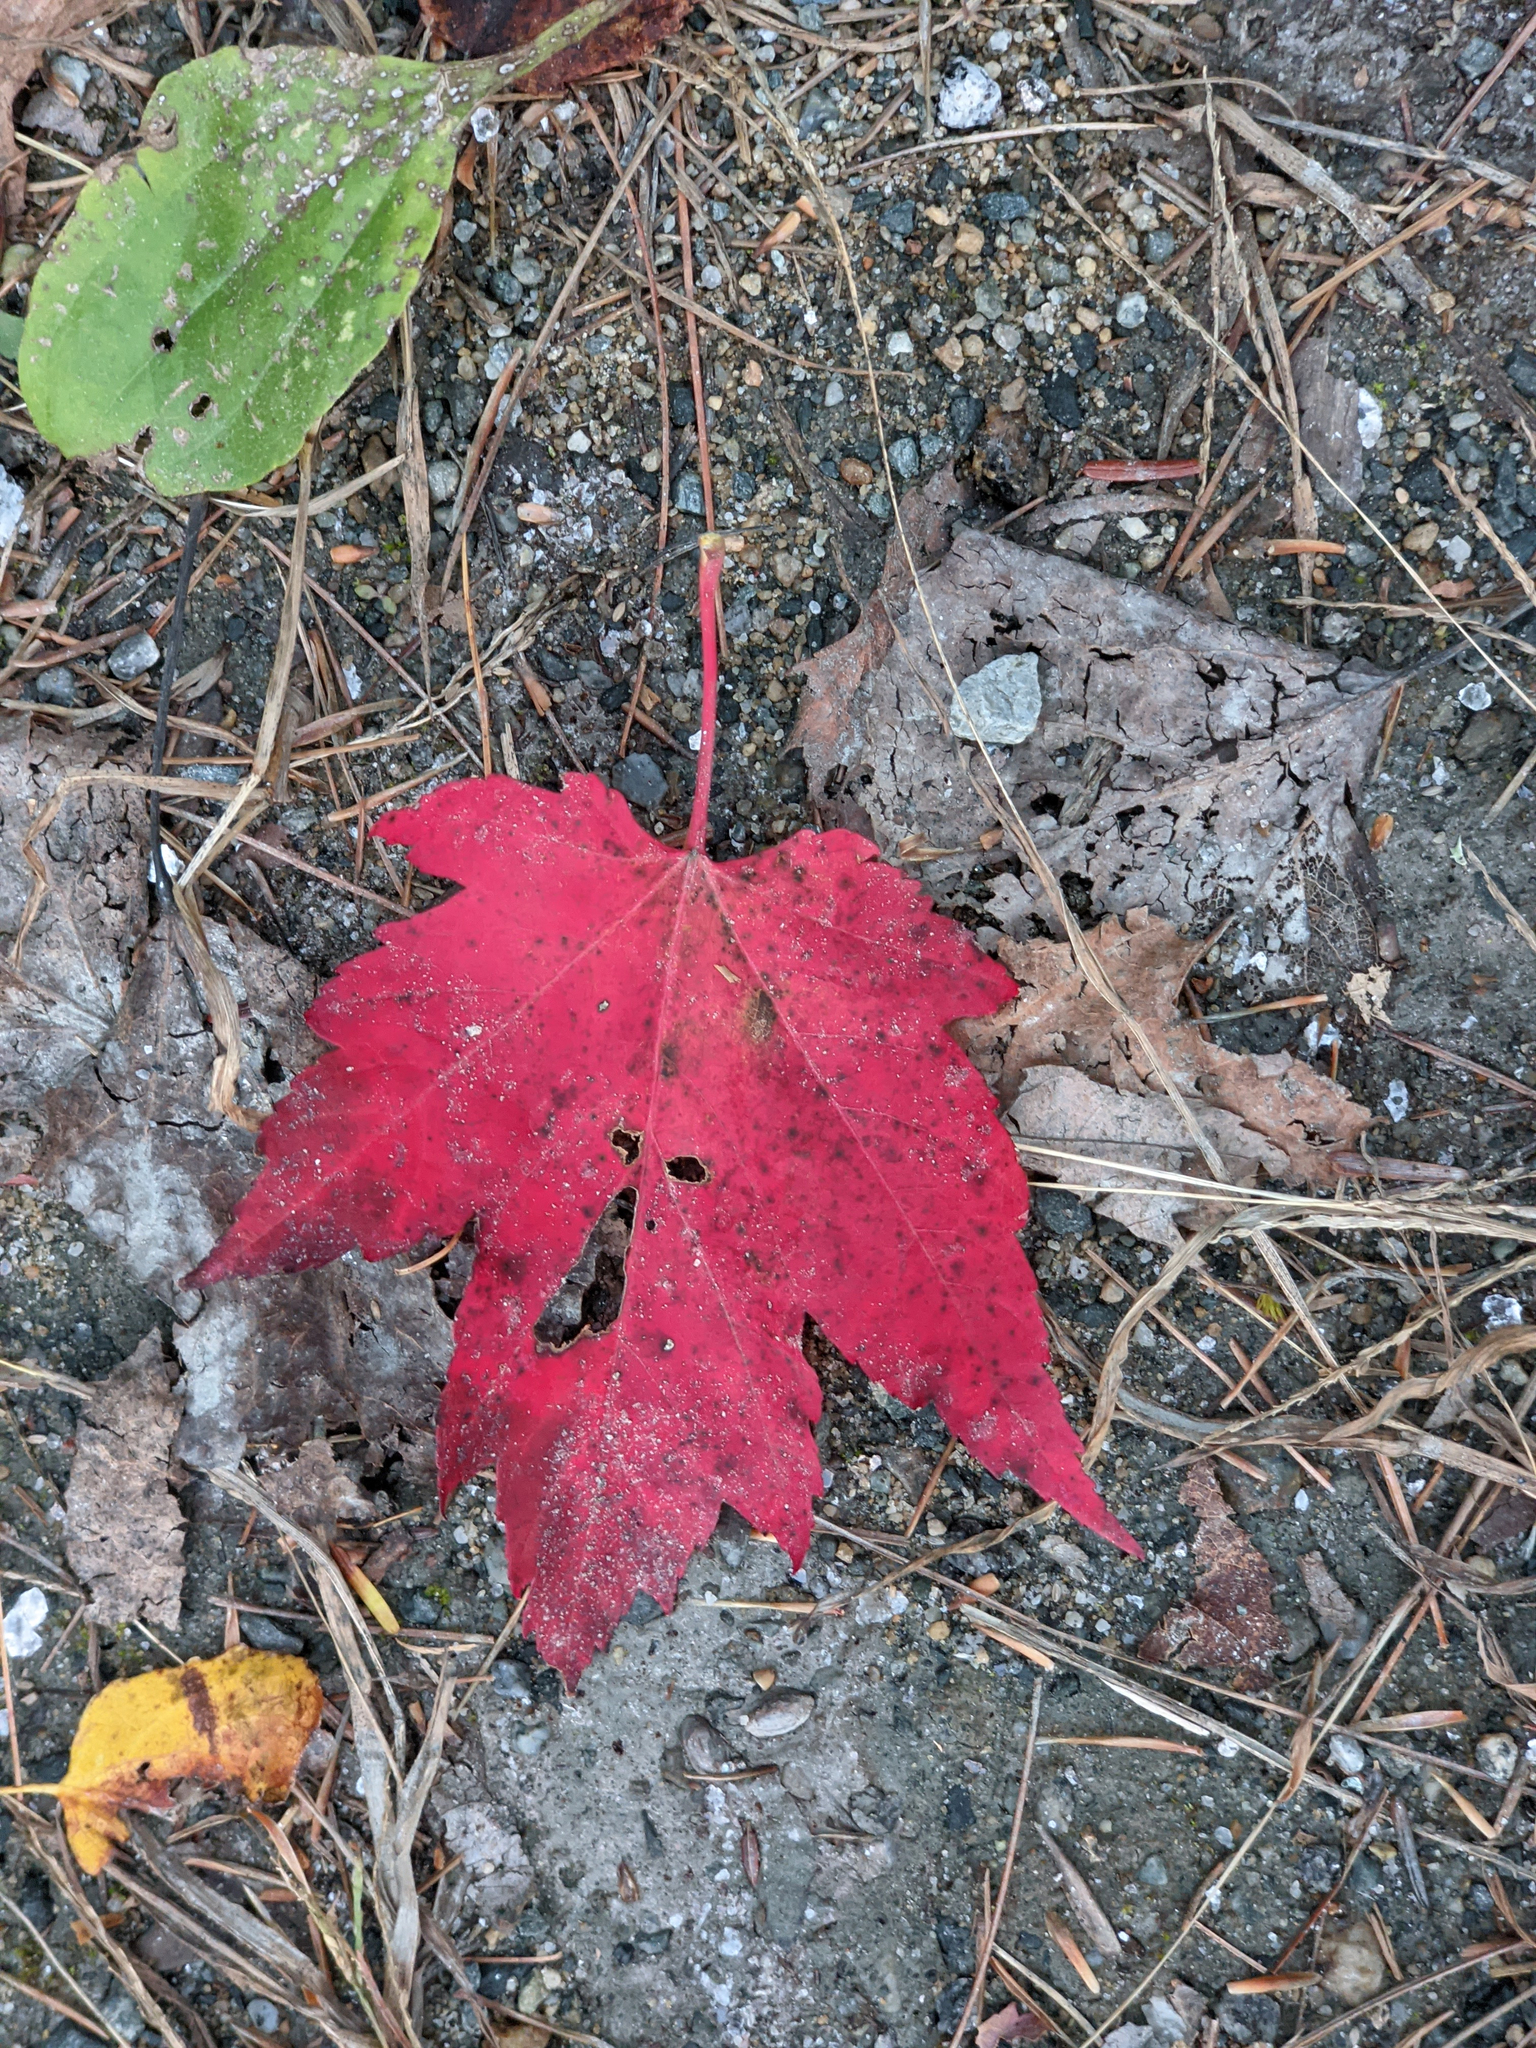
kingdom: Plantae
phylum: Tracheophyta
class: Magnoliopsida
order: Sapindales
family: Sapindaceae
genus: Acer
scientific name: Acer rubrum
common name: Red maple
